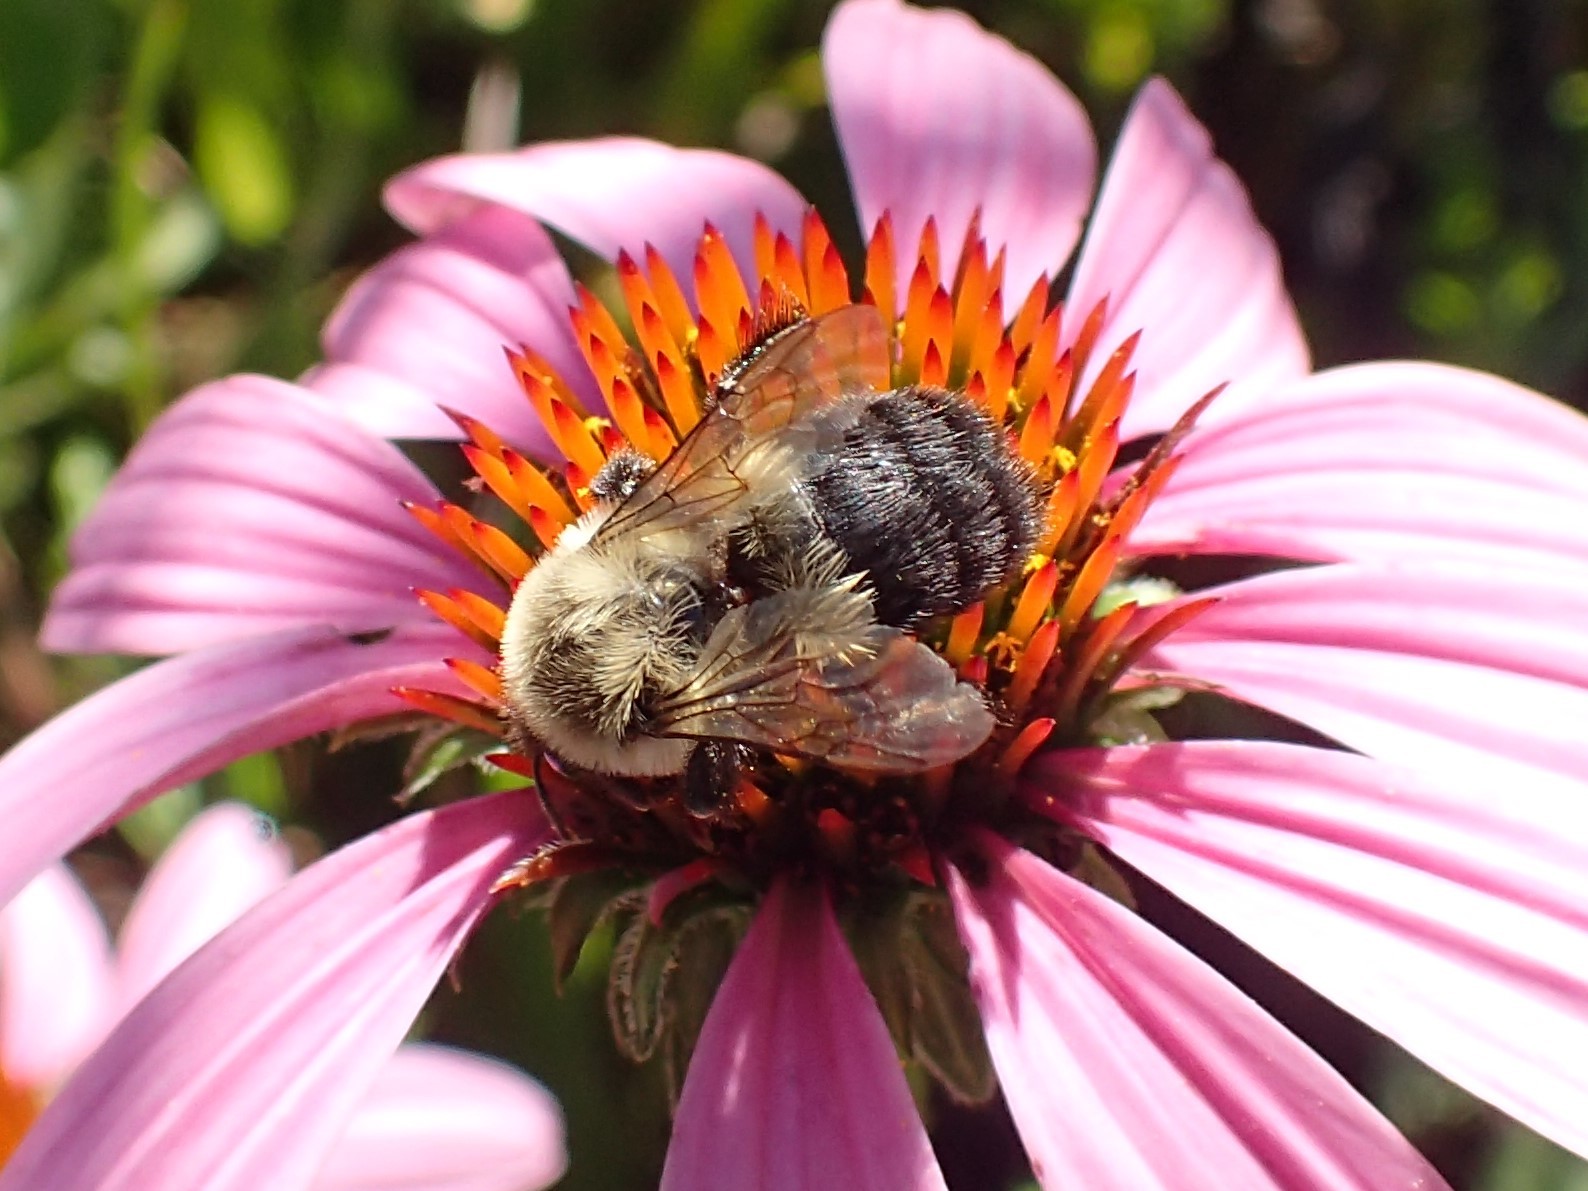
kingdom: Animalia
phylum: Arthropoda
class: Insecta
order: Hymenoptera
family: Apidae
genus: Bombus
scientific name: Bombus impatiens
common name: Common eastern bumble bee
